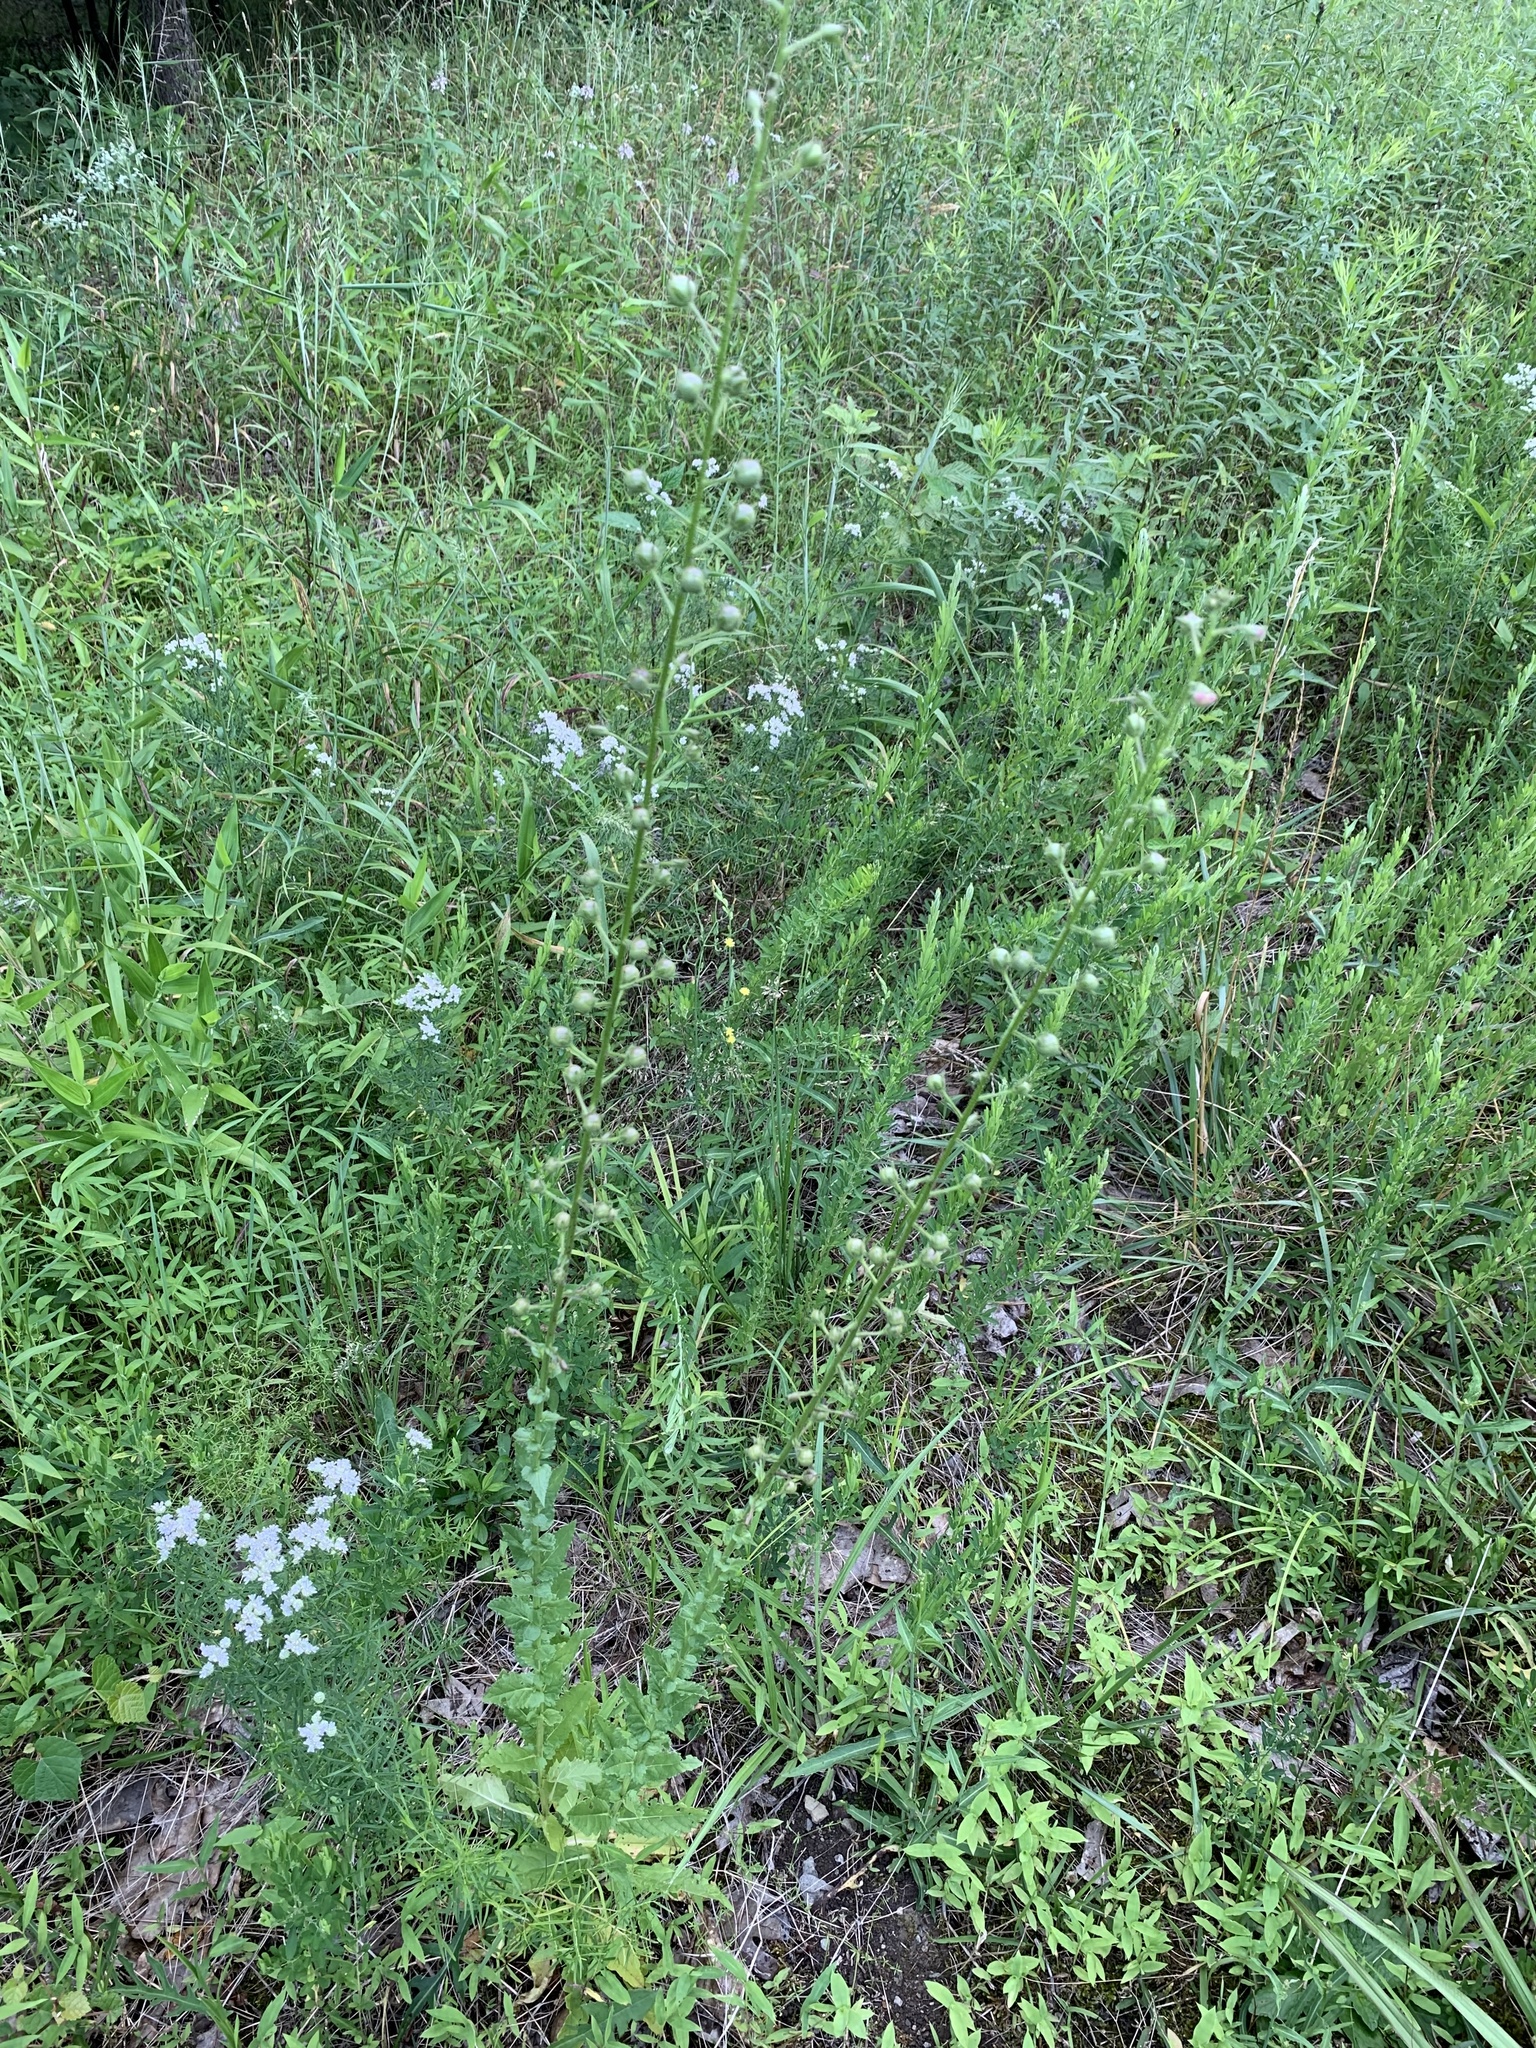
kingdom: Plantae
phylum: Tracheophyta
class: Magnoliopsida
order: Lamiales
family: Scrophulariaceae
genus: Verbascum
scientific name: Verbascum blattaria
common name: Moth mullein
